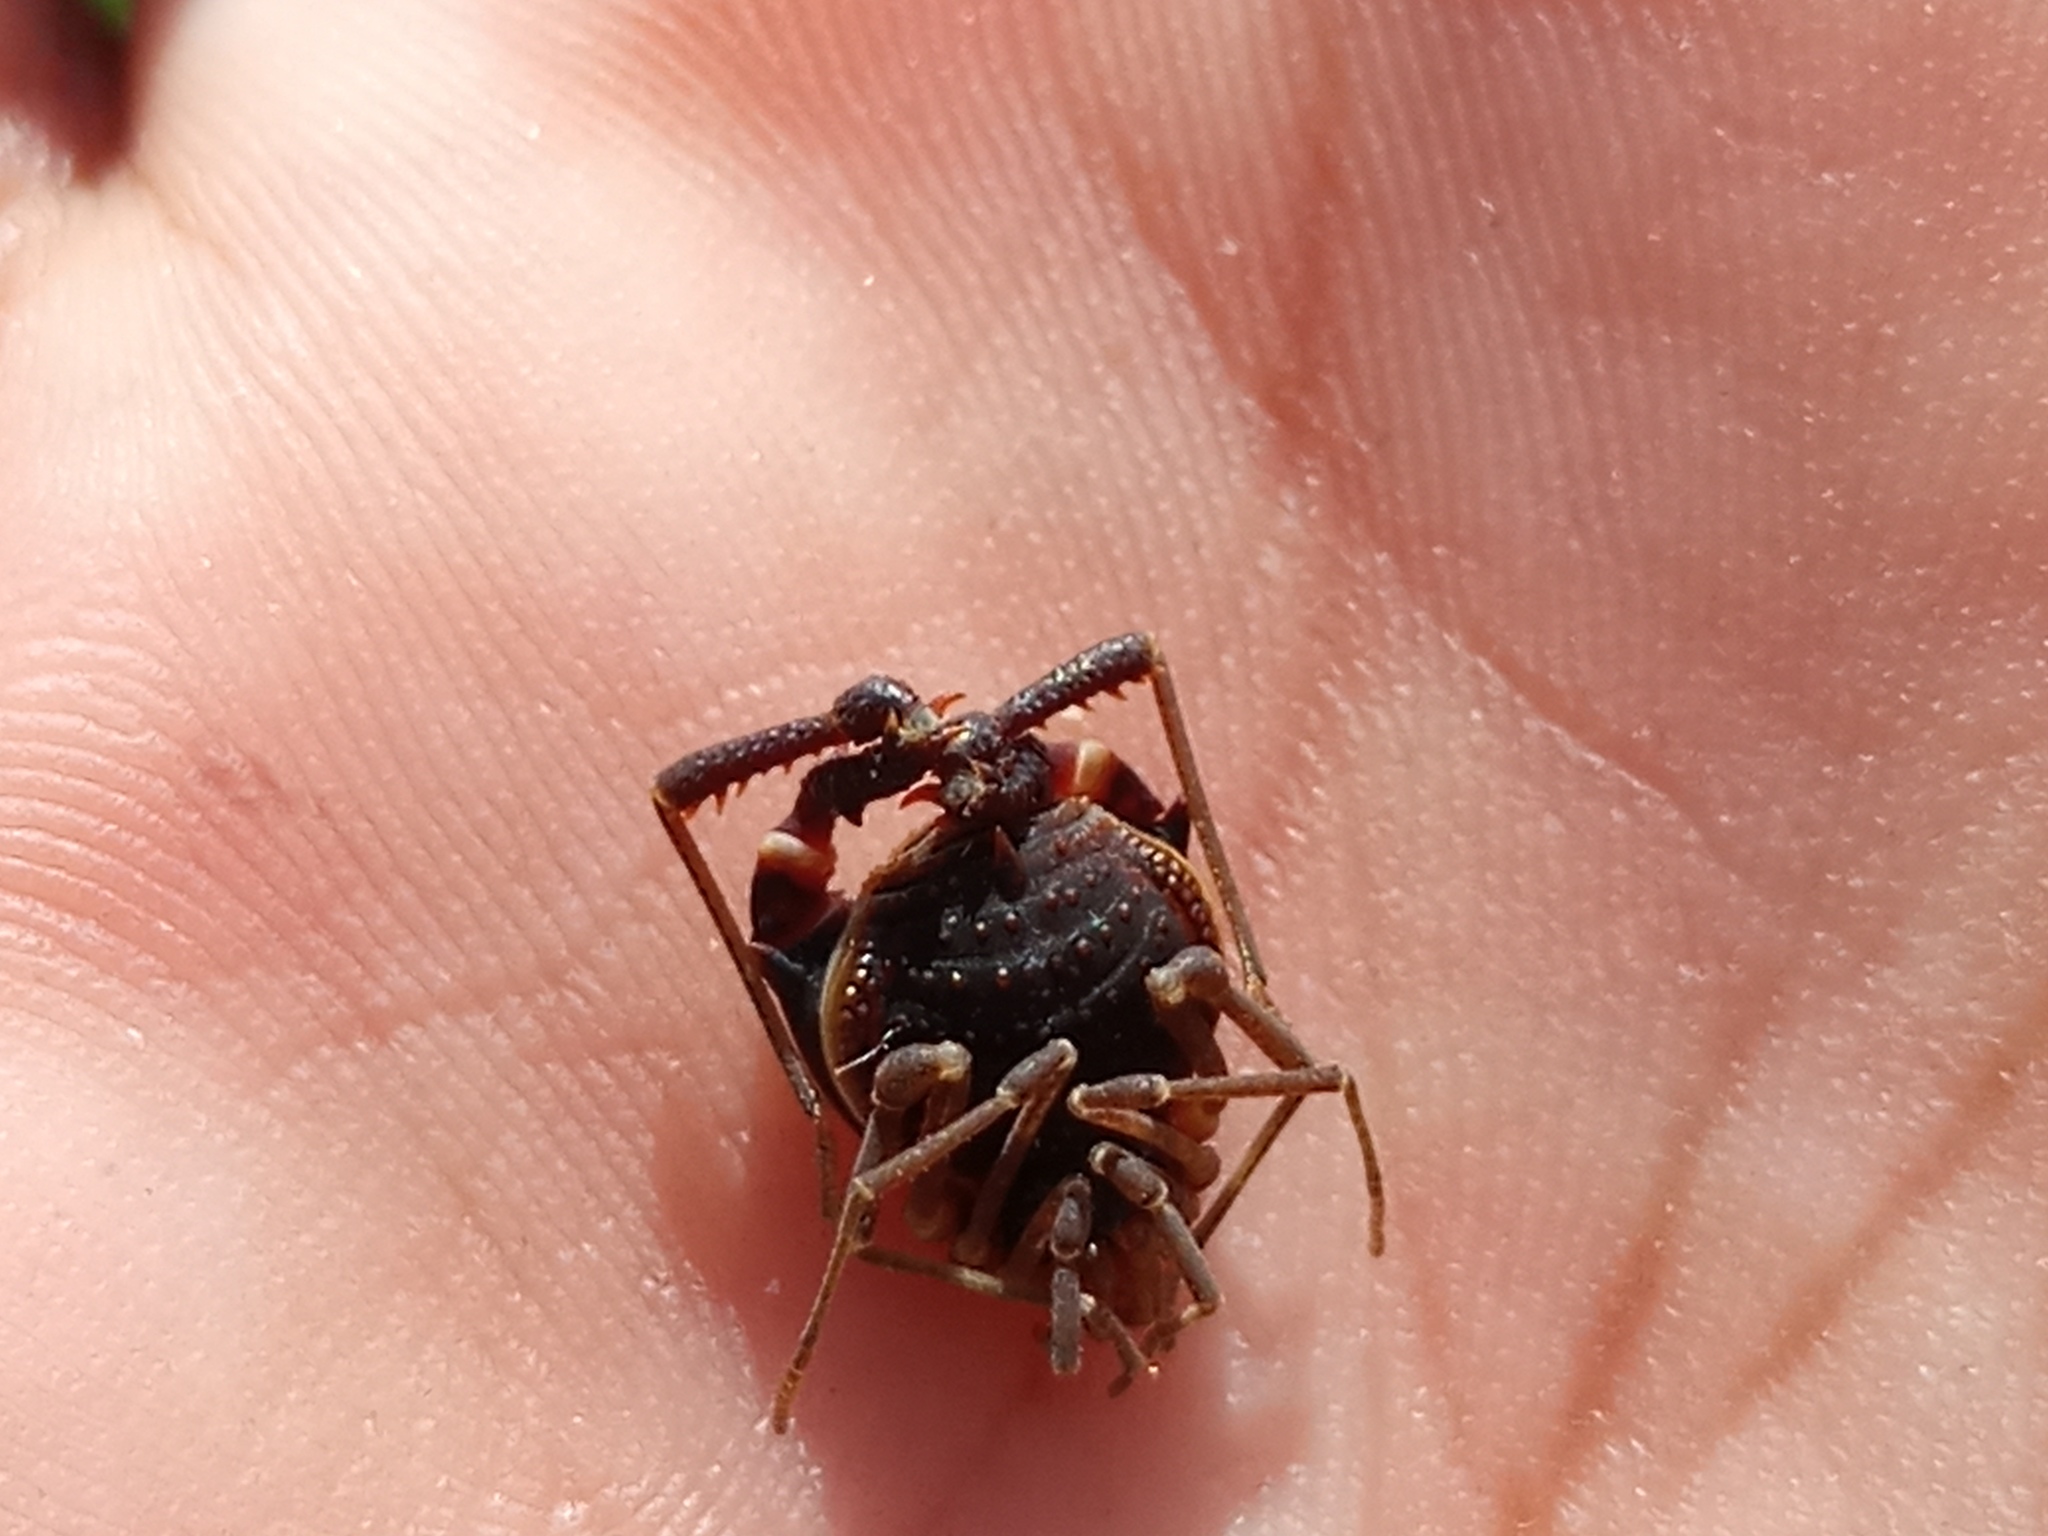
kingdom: Animalia
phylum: Arthropoda
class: Arachnida
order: Opiliones
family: Gonyleptidae
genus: Acanthopachylus
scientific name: Acanthopachylus robustus
